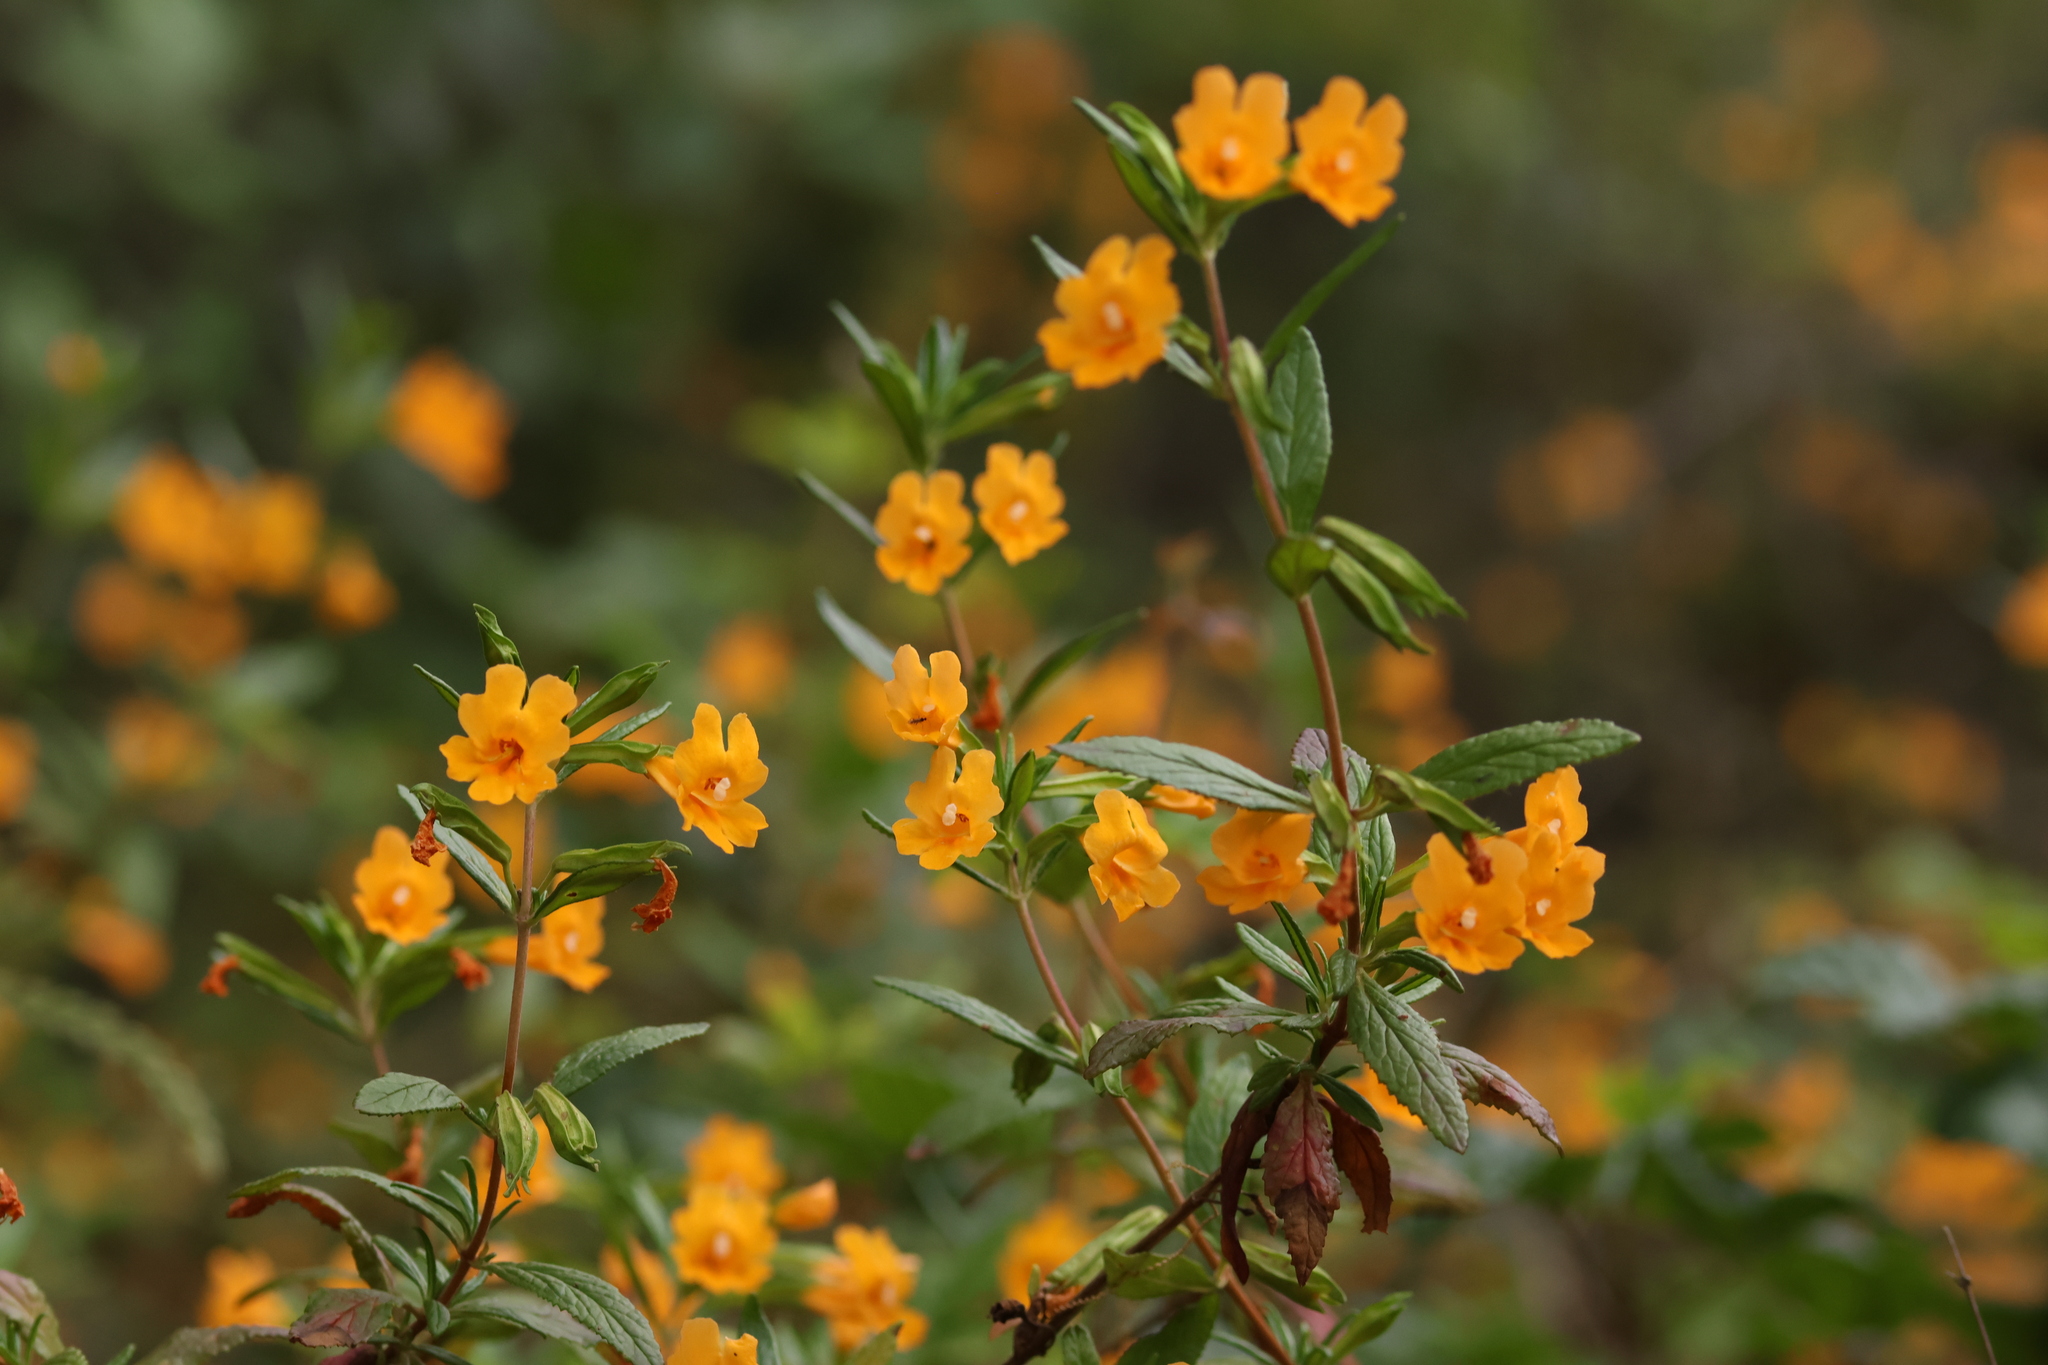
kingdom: Plantae
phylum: Tracheophyta
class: Magnoliopsida
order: Lamiales
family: Phrymaceae
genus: Diplacus
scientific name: Diplacus aurantiacus
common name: Bush monkey-flower
